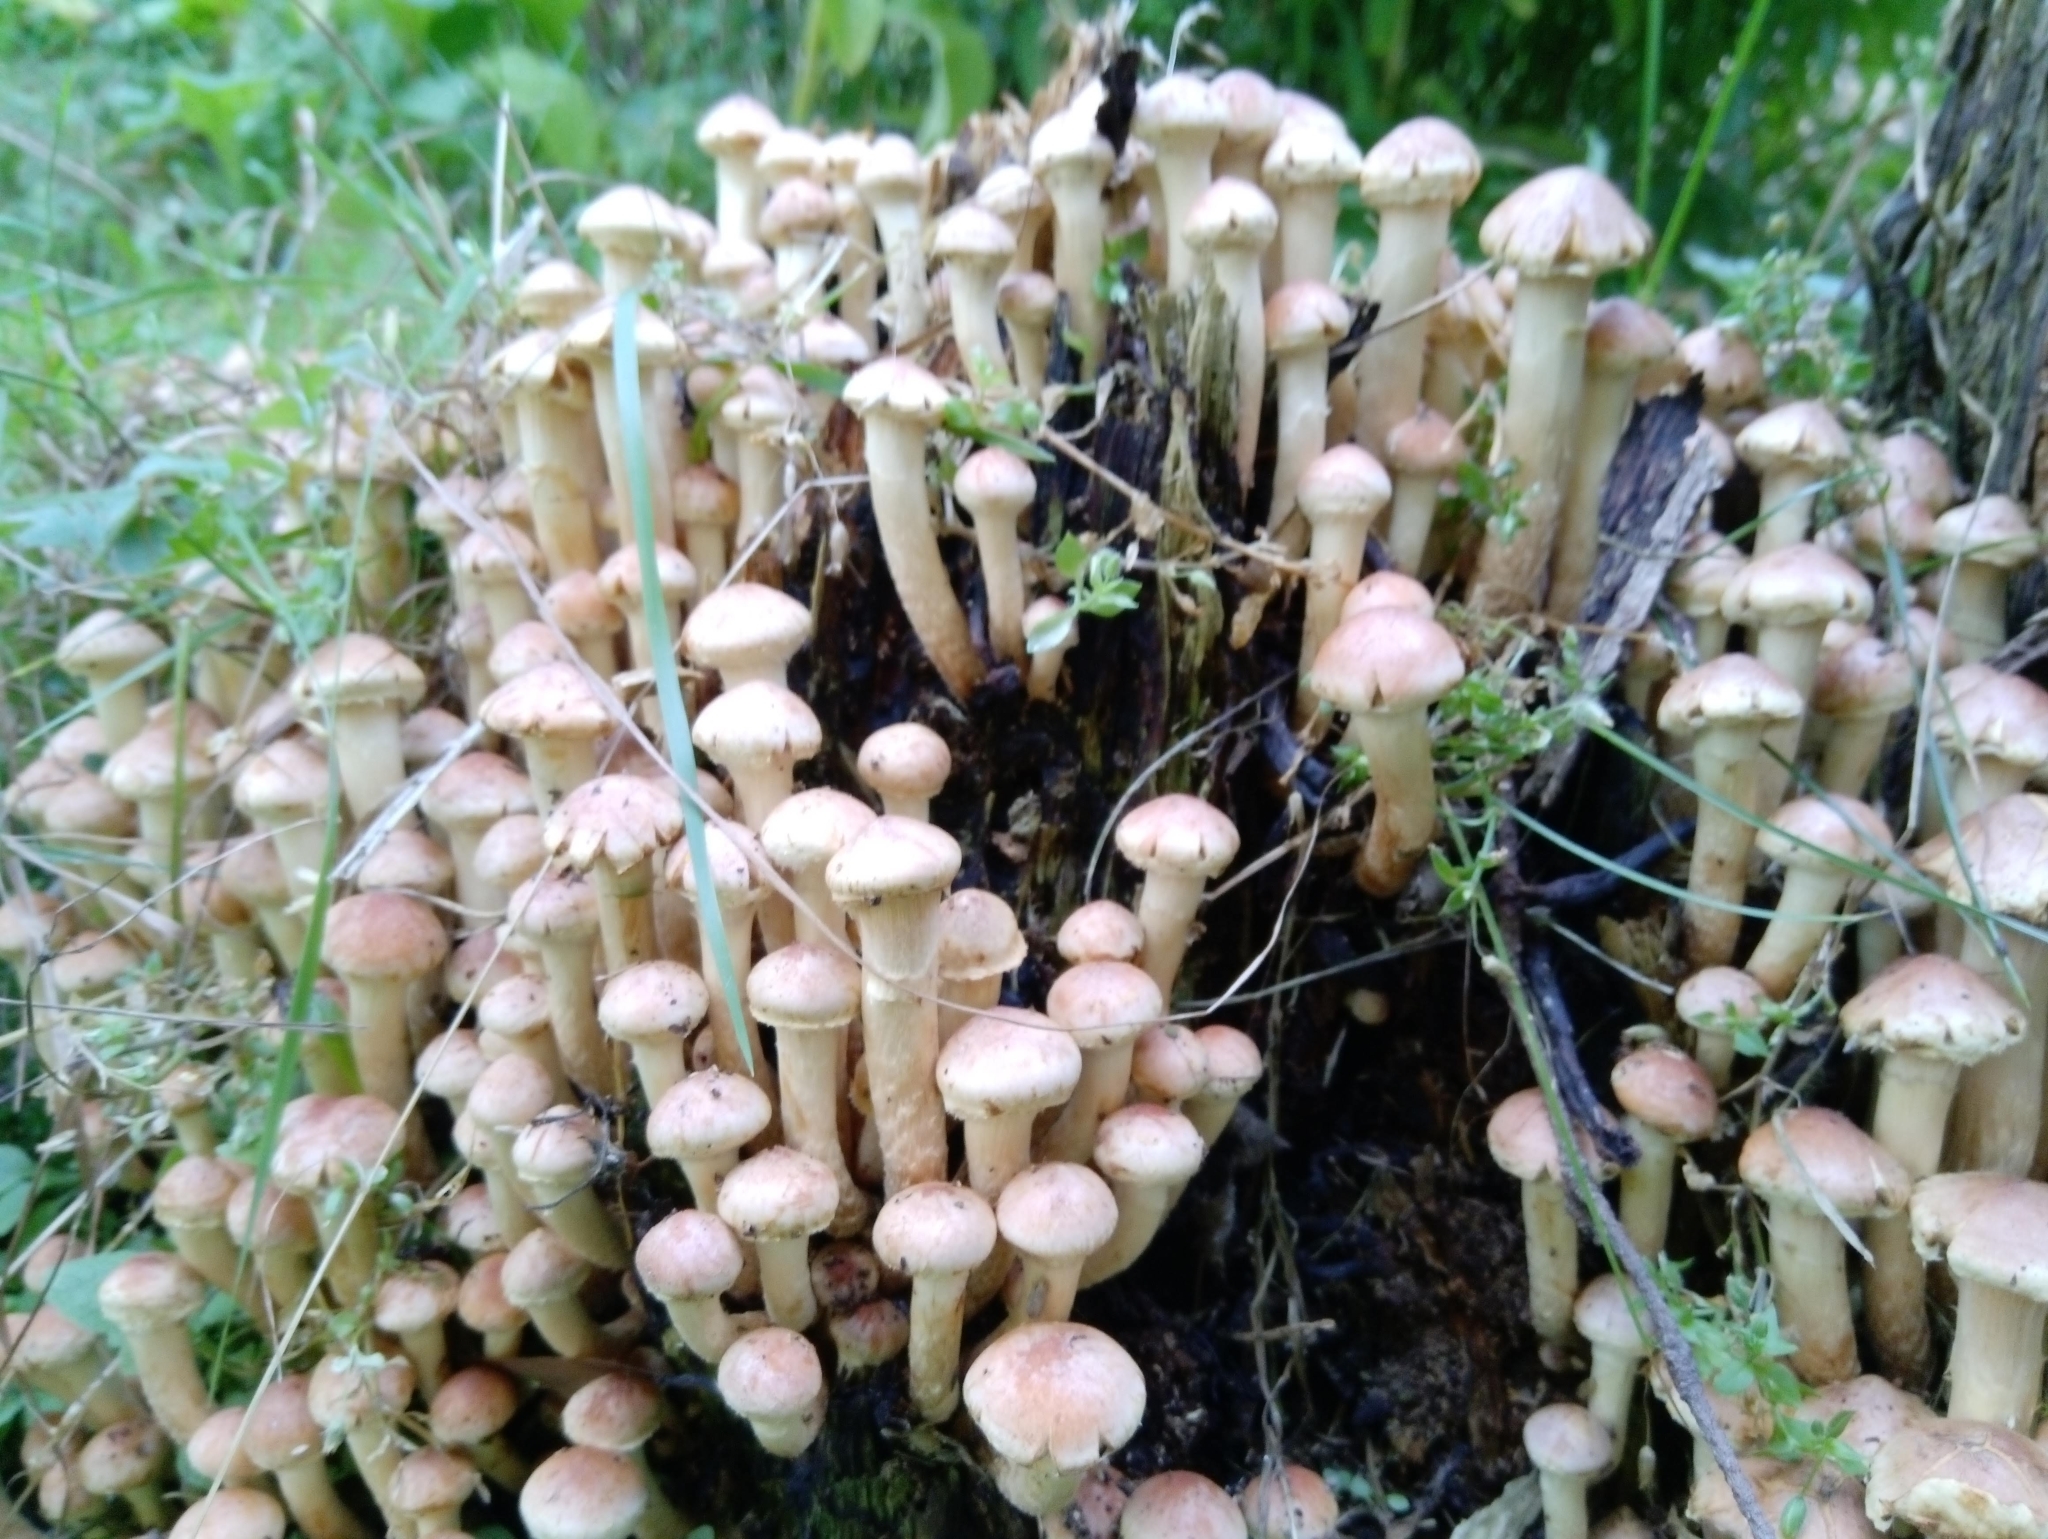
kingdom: Fungi
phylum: Basidiomycota
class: Agaricomycetes
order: Agaricales
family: Strophariaceae
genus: Hypholoma
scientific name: Hypholoma fasciculare
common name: Sulphur tuft
